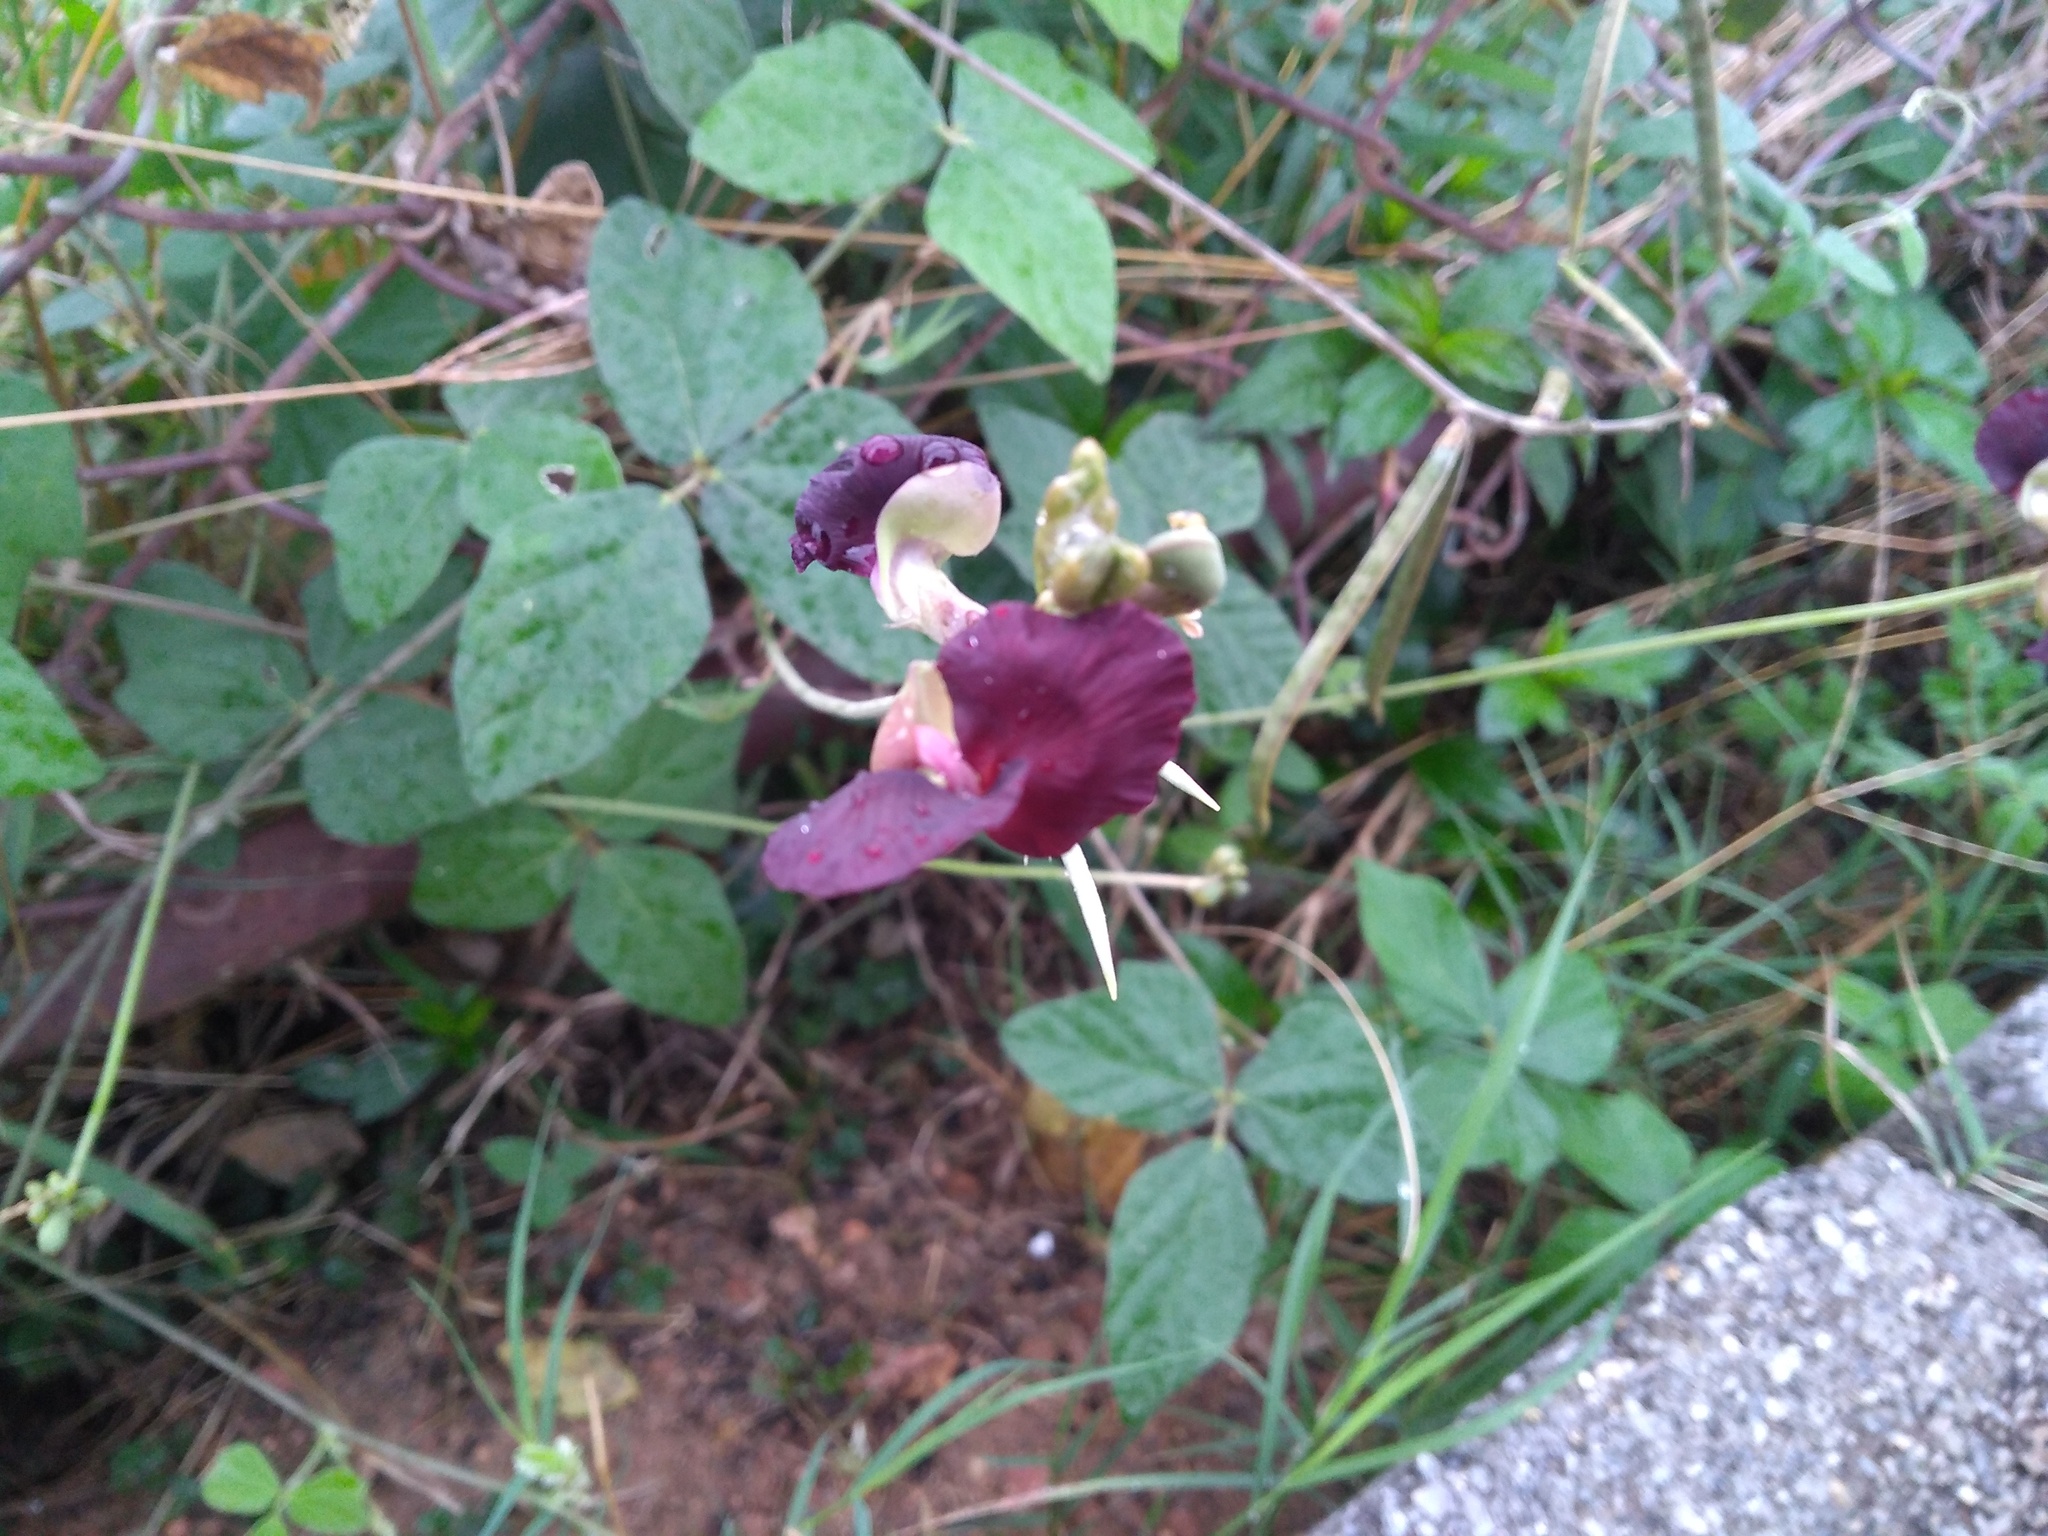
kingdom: Plantae
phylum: Tracheophyta
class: Magnoliopsida
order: Fabales
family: Fabaceae
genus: Macroptilium
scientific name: Macroptilium atropurpureum
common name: Purple bushbean
